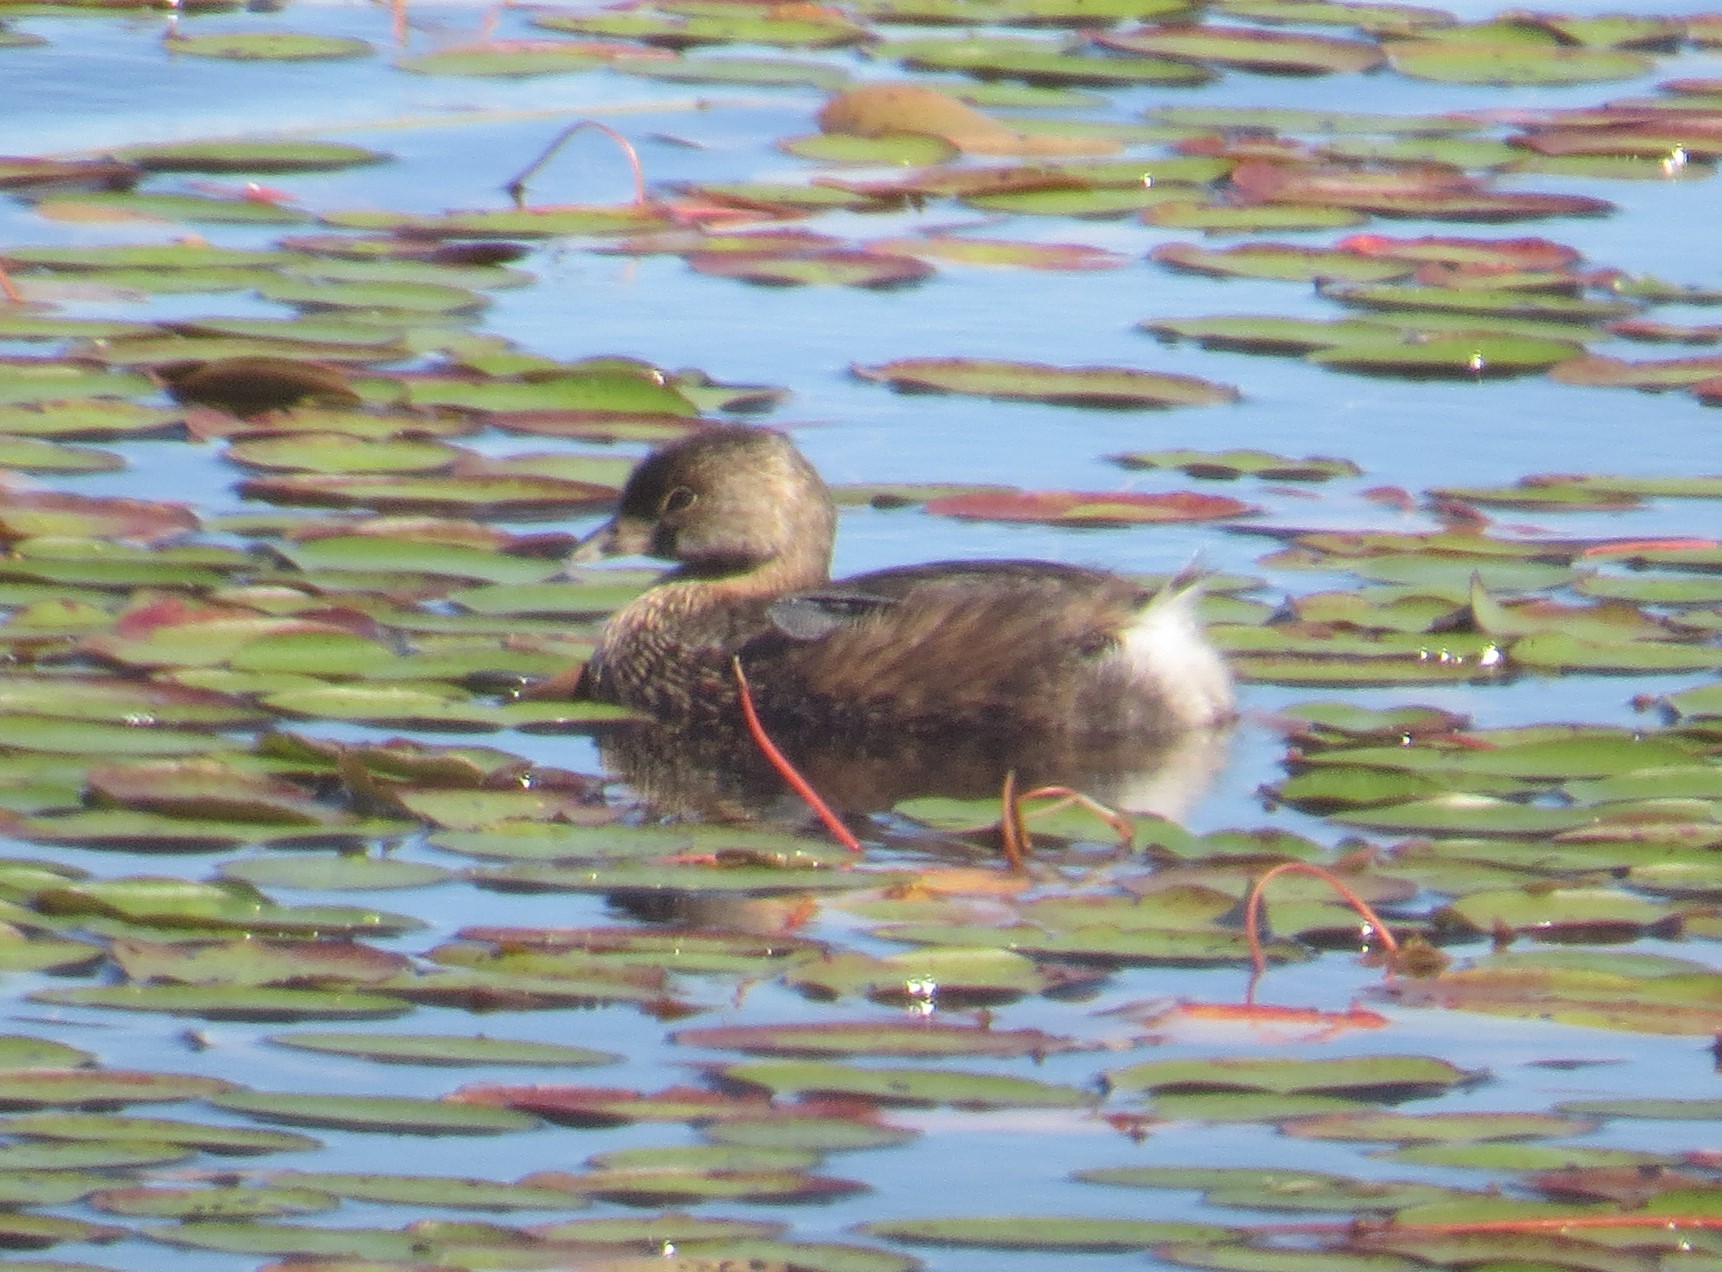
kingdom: Animalia
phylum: Chordata
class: Aves
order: Podicipediformes
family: Podicipedidae
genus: Podilymbus
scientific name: Podilymbus podiceps
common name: Pied-billed grebe
